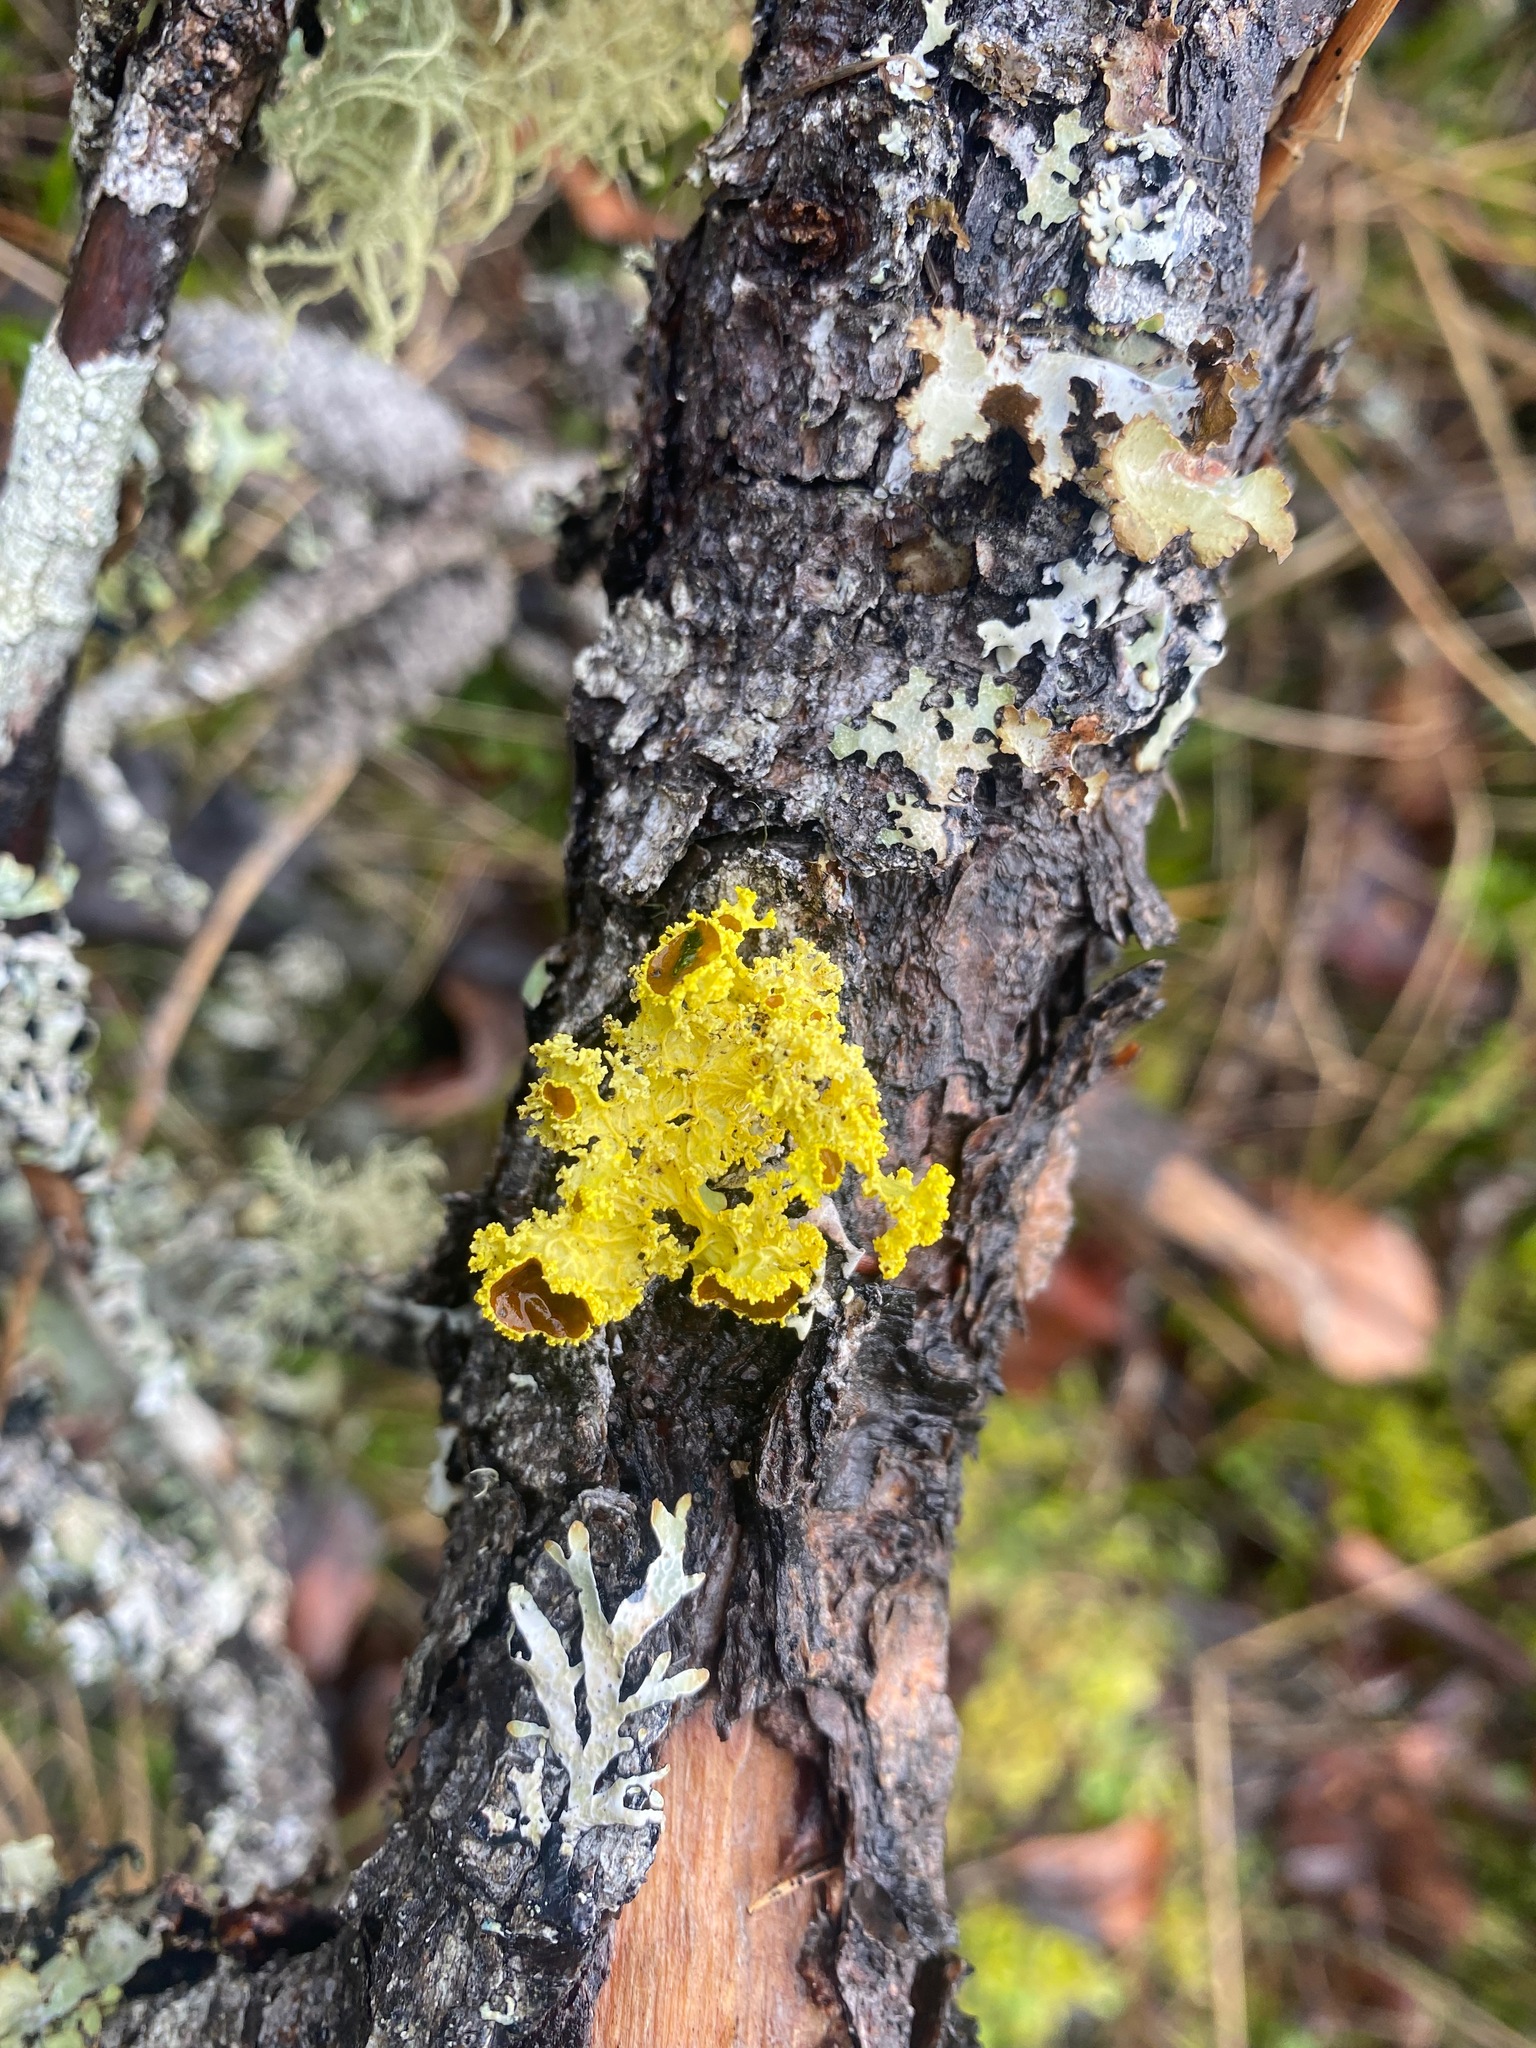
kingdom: Fungi
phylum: Ascomycota
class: Lecanoromycetes
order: Lecanorales
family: Parmeliaceae
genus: Vulpicida
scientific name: Vulpicida canadensis
